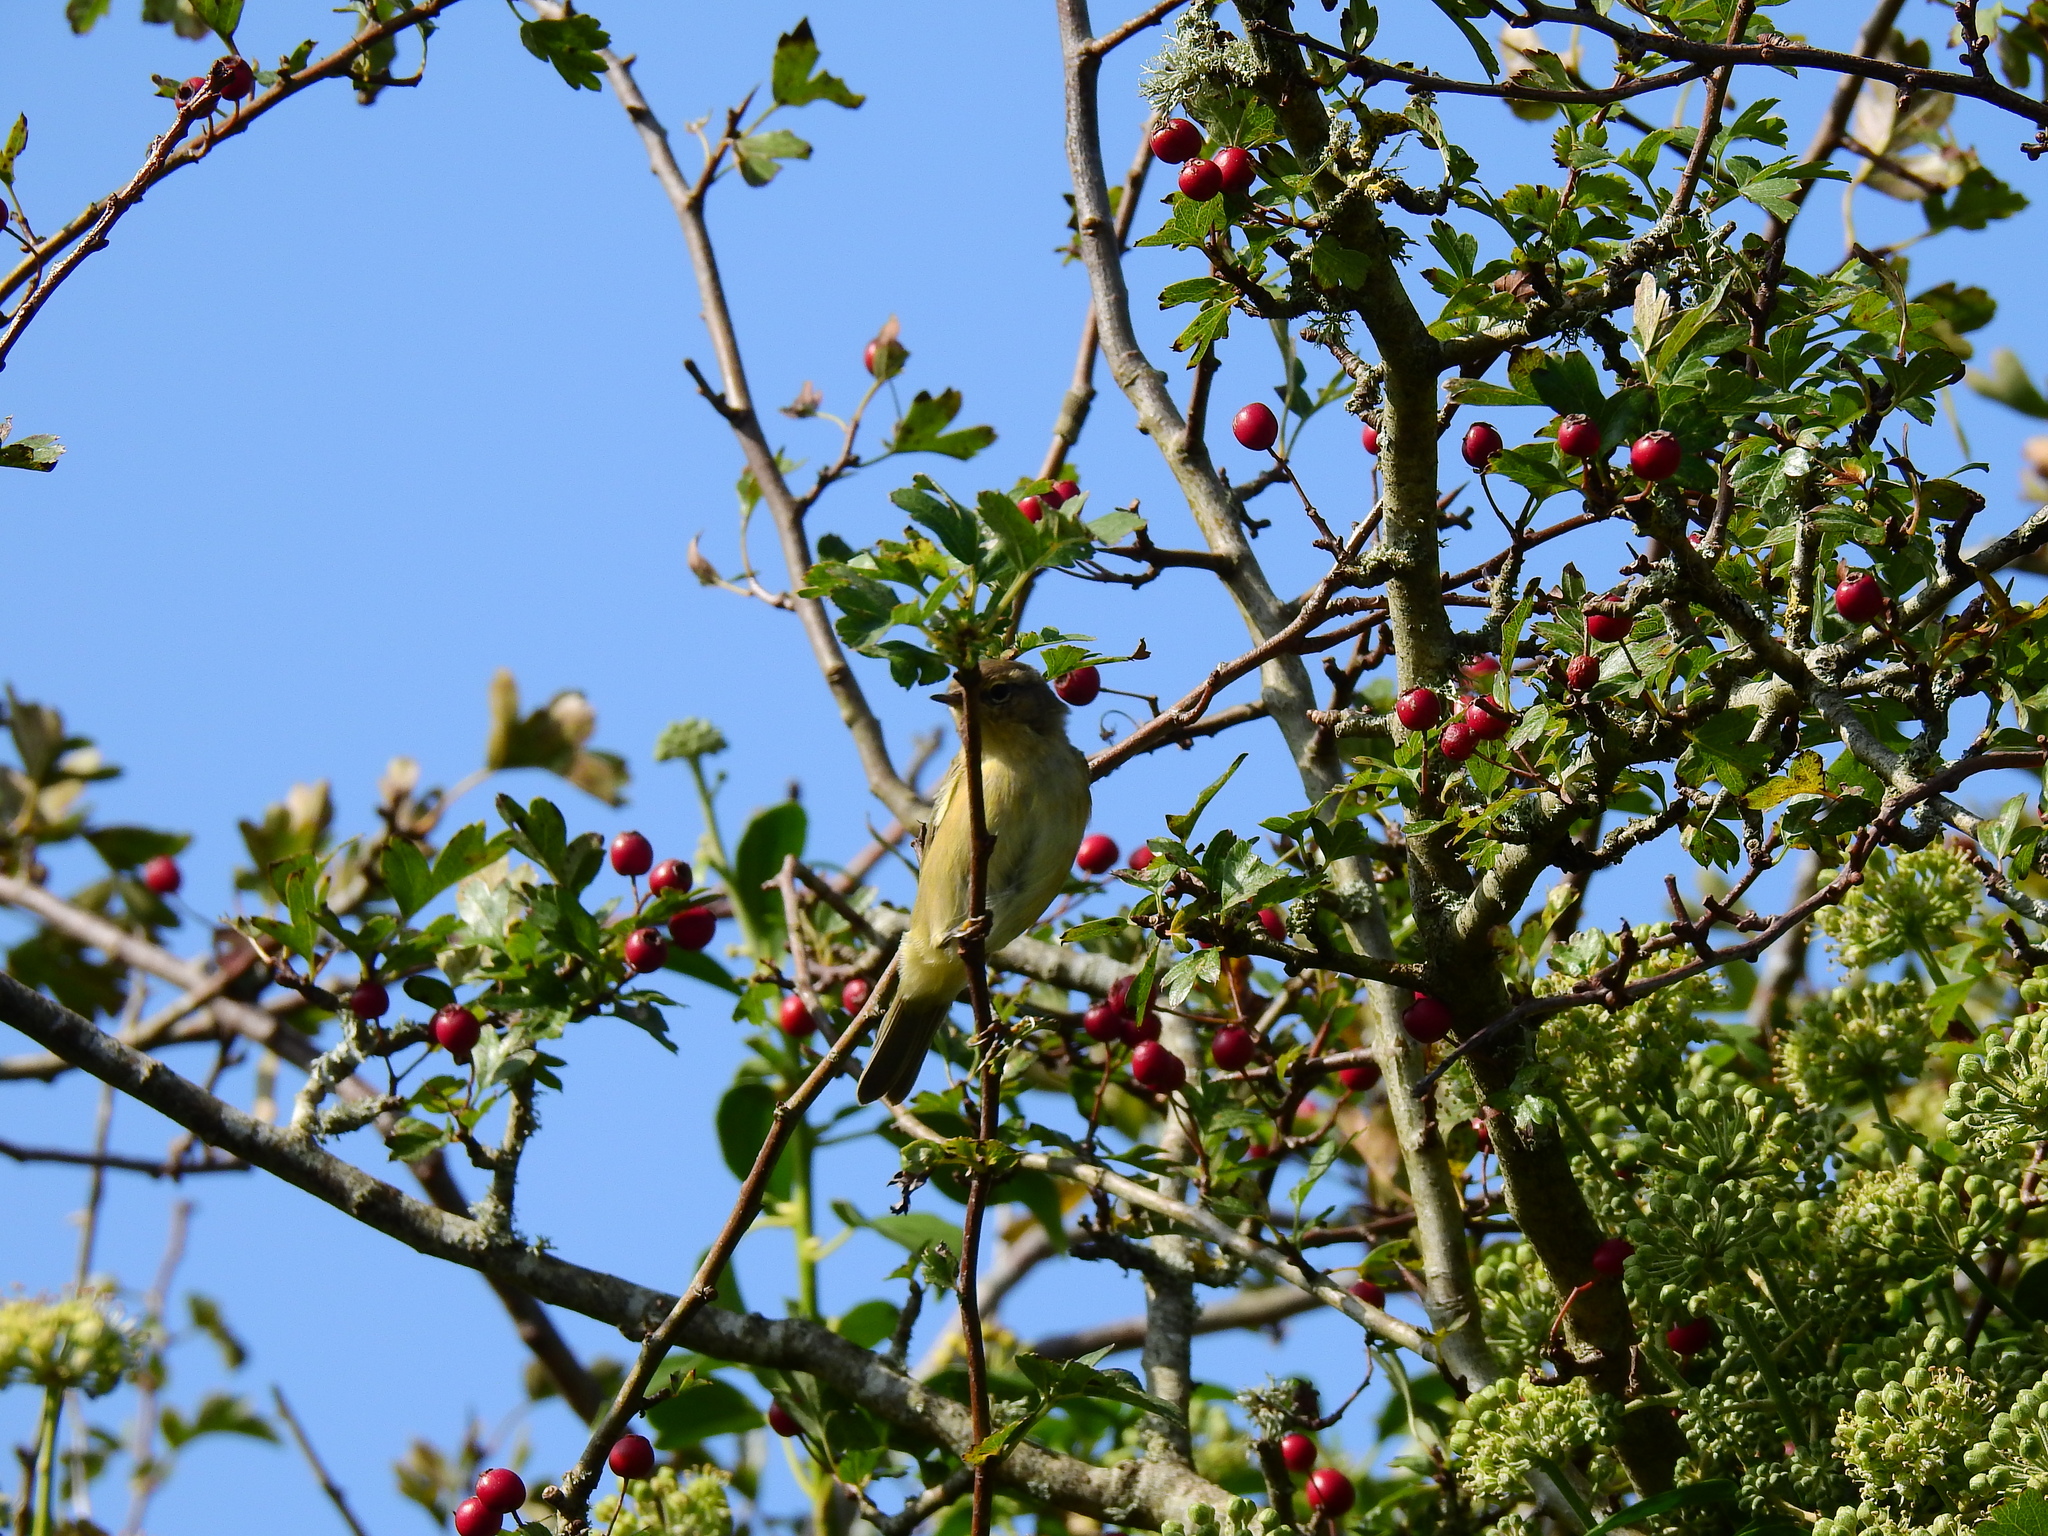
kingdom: Animalia
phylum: Chordata
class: Aves
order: Passeriformes
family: Phylloscopidae
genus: Phylloscopus
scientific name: Phylloscopus collybita
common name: Common chiffchaff
